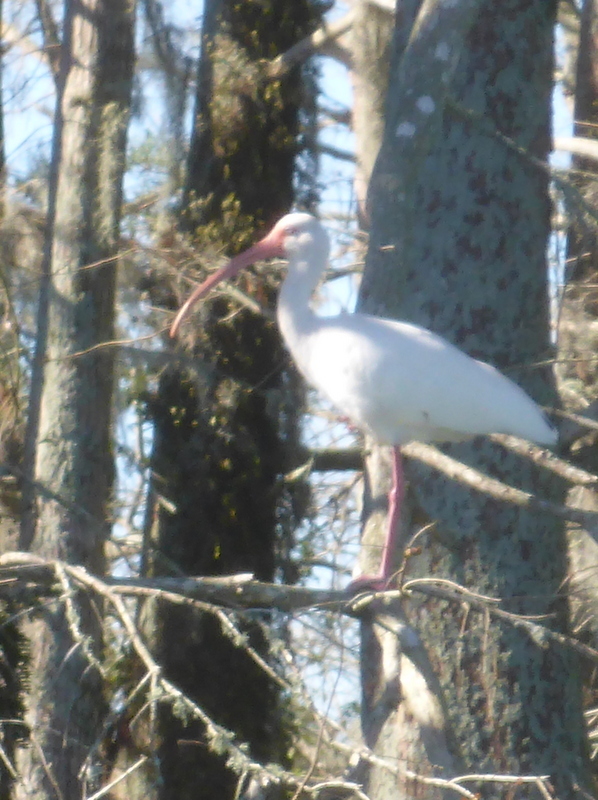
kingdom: Animalia
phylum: Chordata
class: Aves
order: Pelecaniformes
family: Threskiornithidae
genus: Eudocimus
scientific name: Eudocimus albus
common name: White ibis
